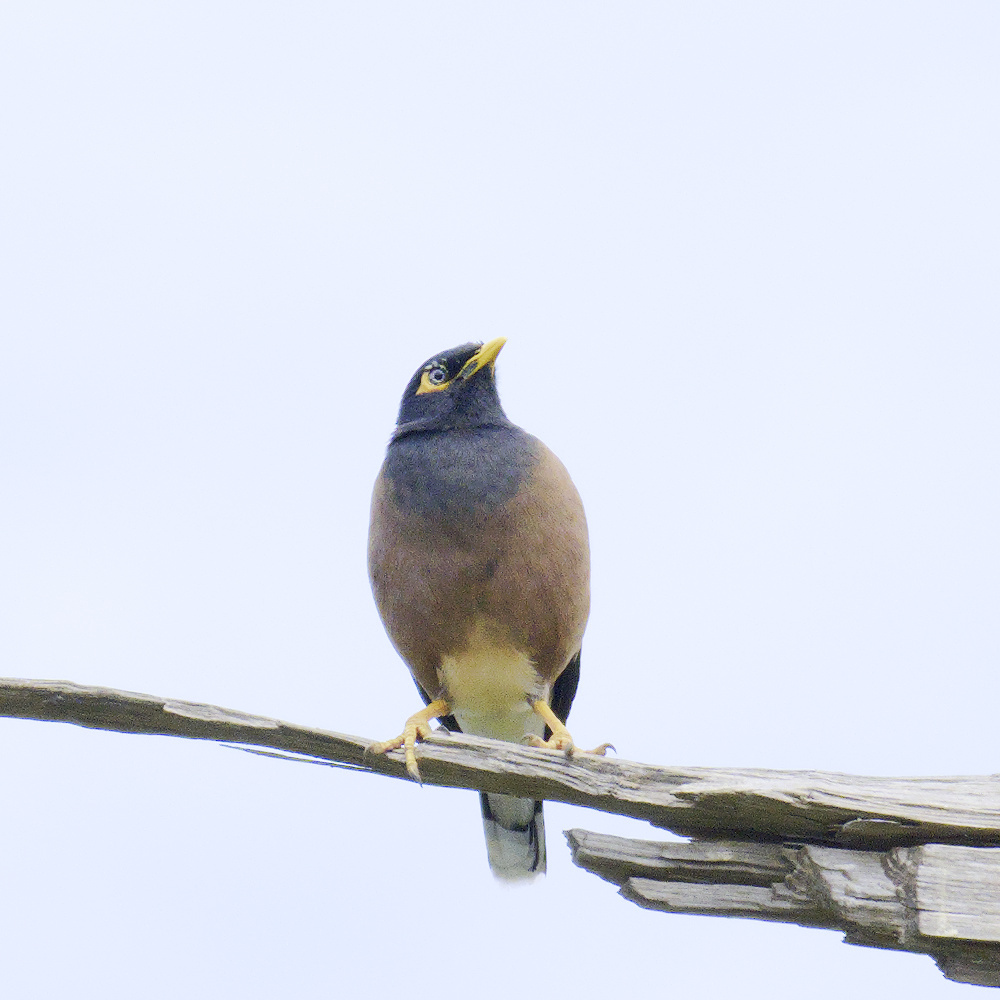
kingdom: Animalia
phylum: Chordata
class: Aves
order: Passeriformes
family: Sturnidae
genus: Acridotheres
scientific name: Acridotheres tristis
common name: Common myna
